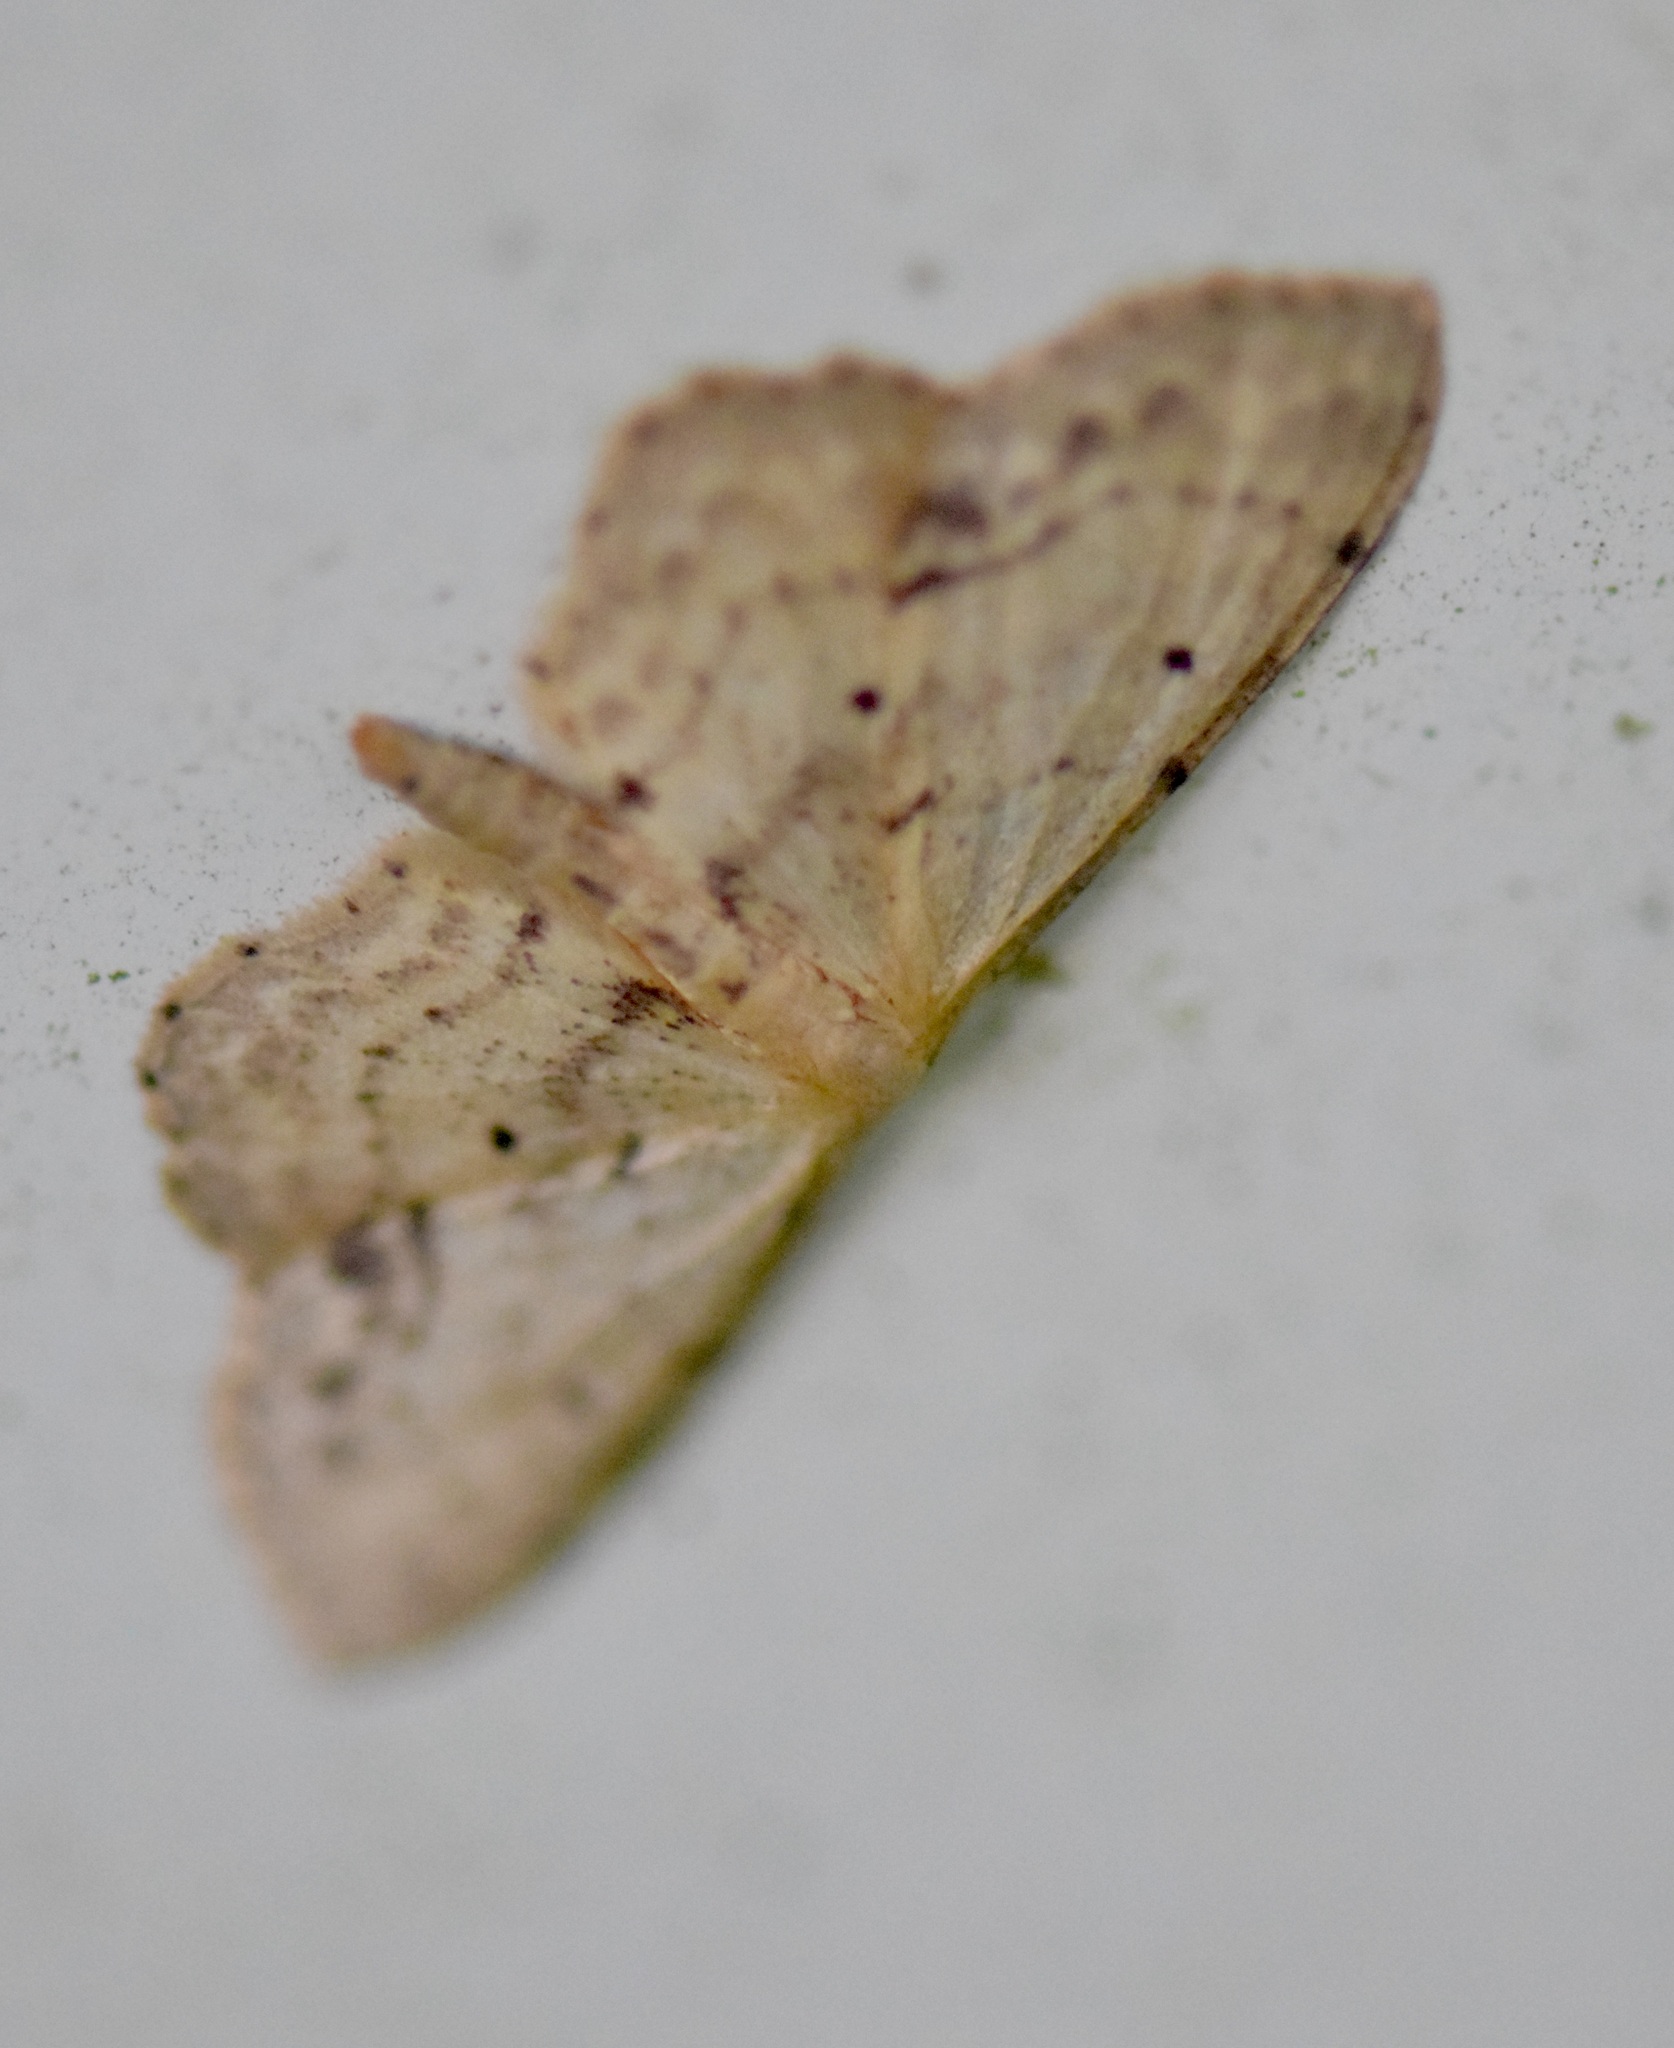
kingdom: Animalia
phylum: Arthropoda
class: Insecta
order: Lepidoptera
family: Geometridae
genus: Idaea
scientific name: Idaea dimidiata
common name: Single-dotted wave
